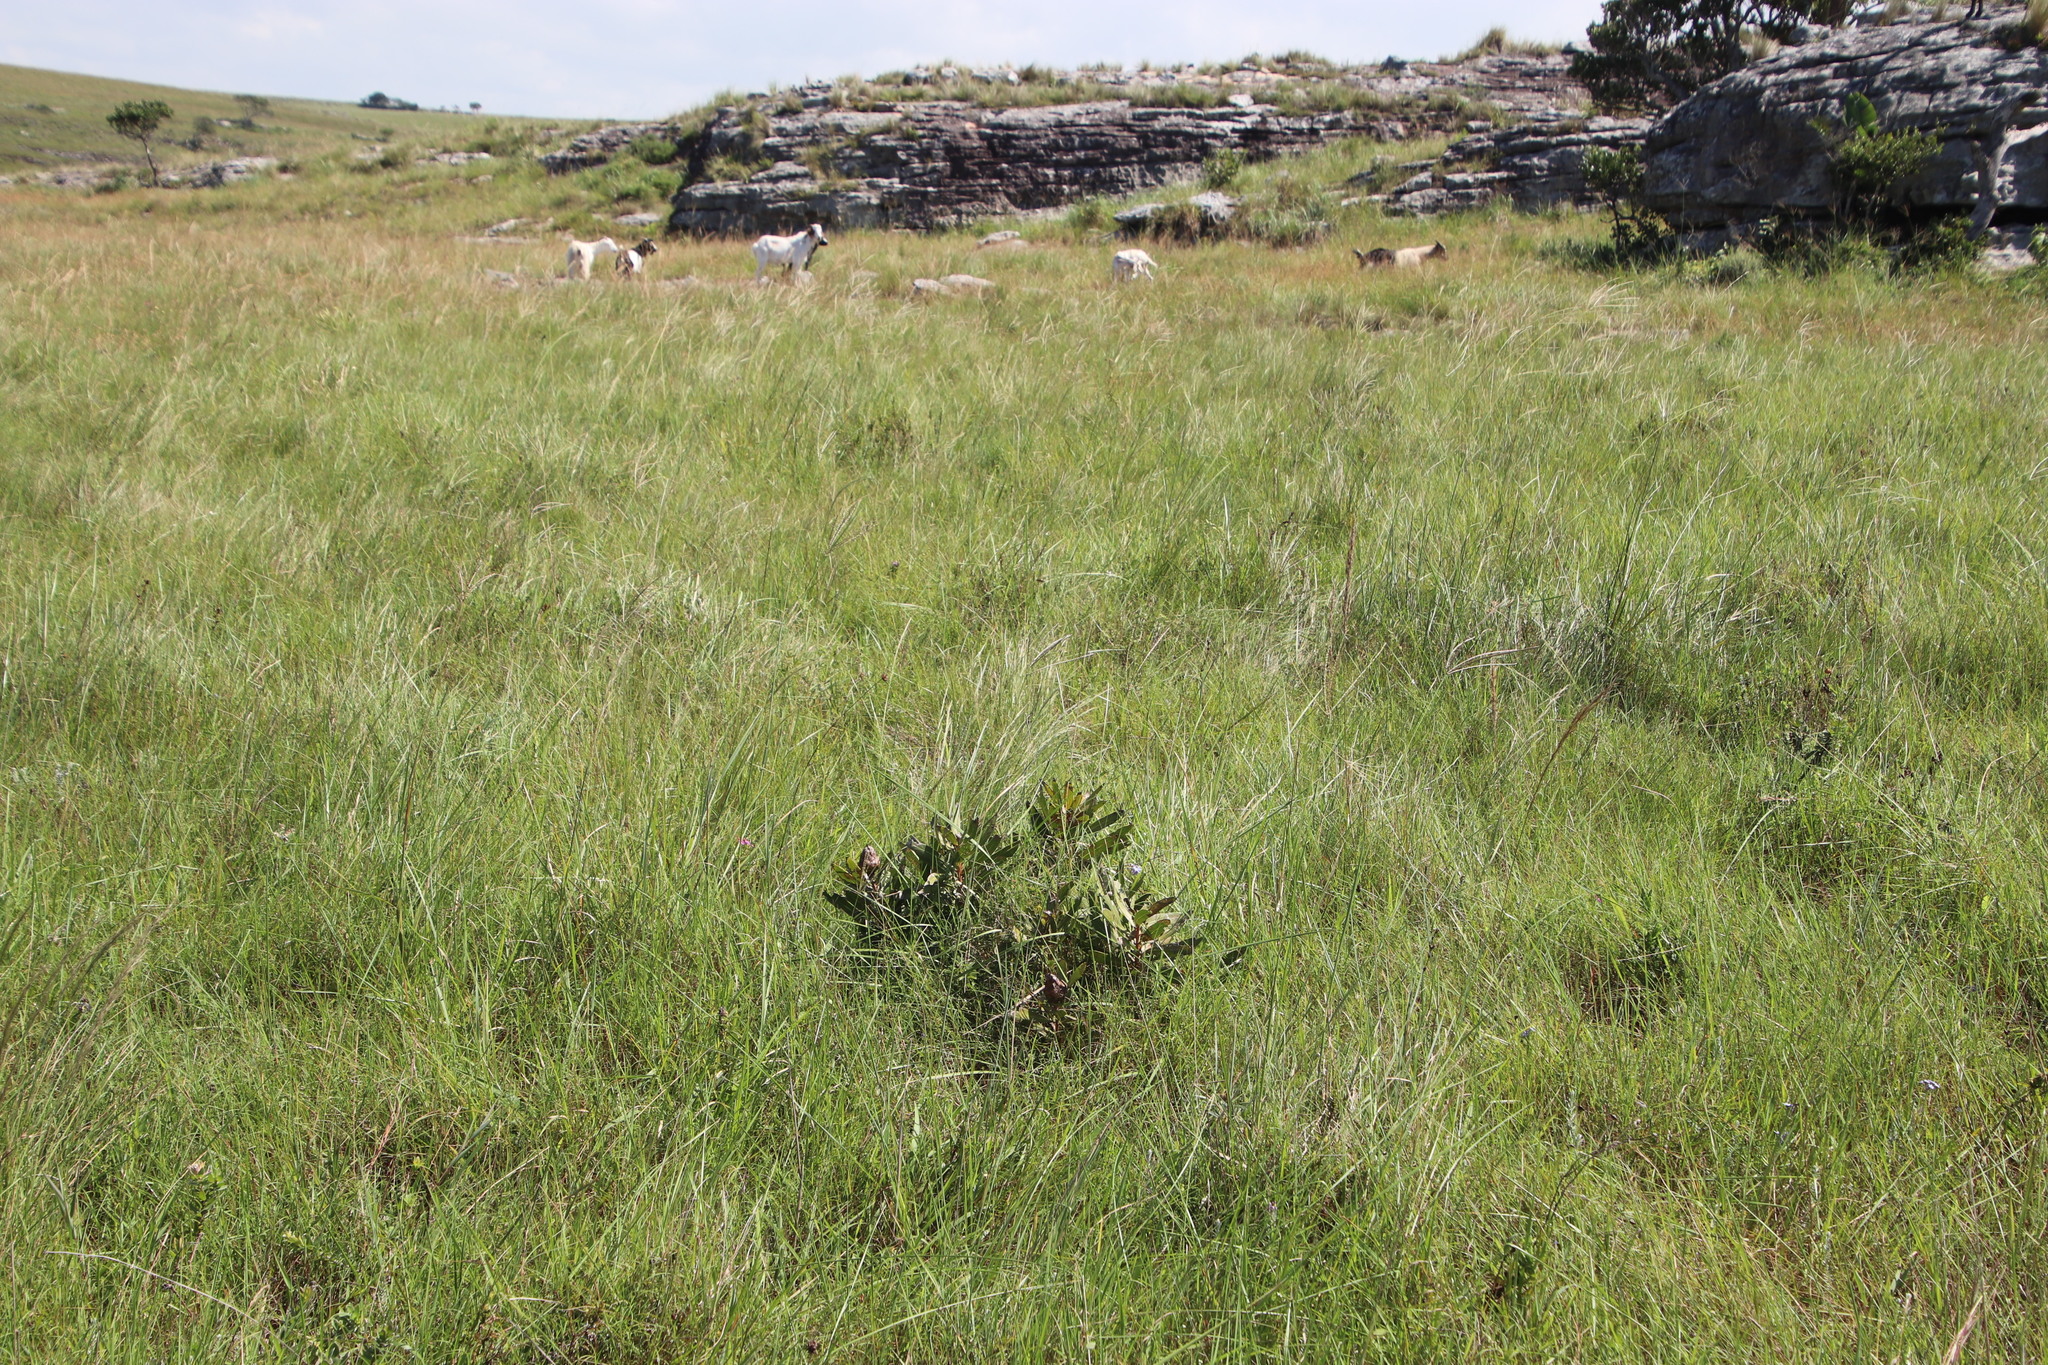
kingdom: Plantae
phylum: Tracheophyta
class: Magnoliopsida
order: Proteales
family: Proteaceae
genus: Protea
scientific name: Protea simplex
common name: Dwarf grassveld sugarbush
